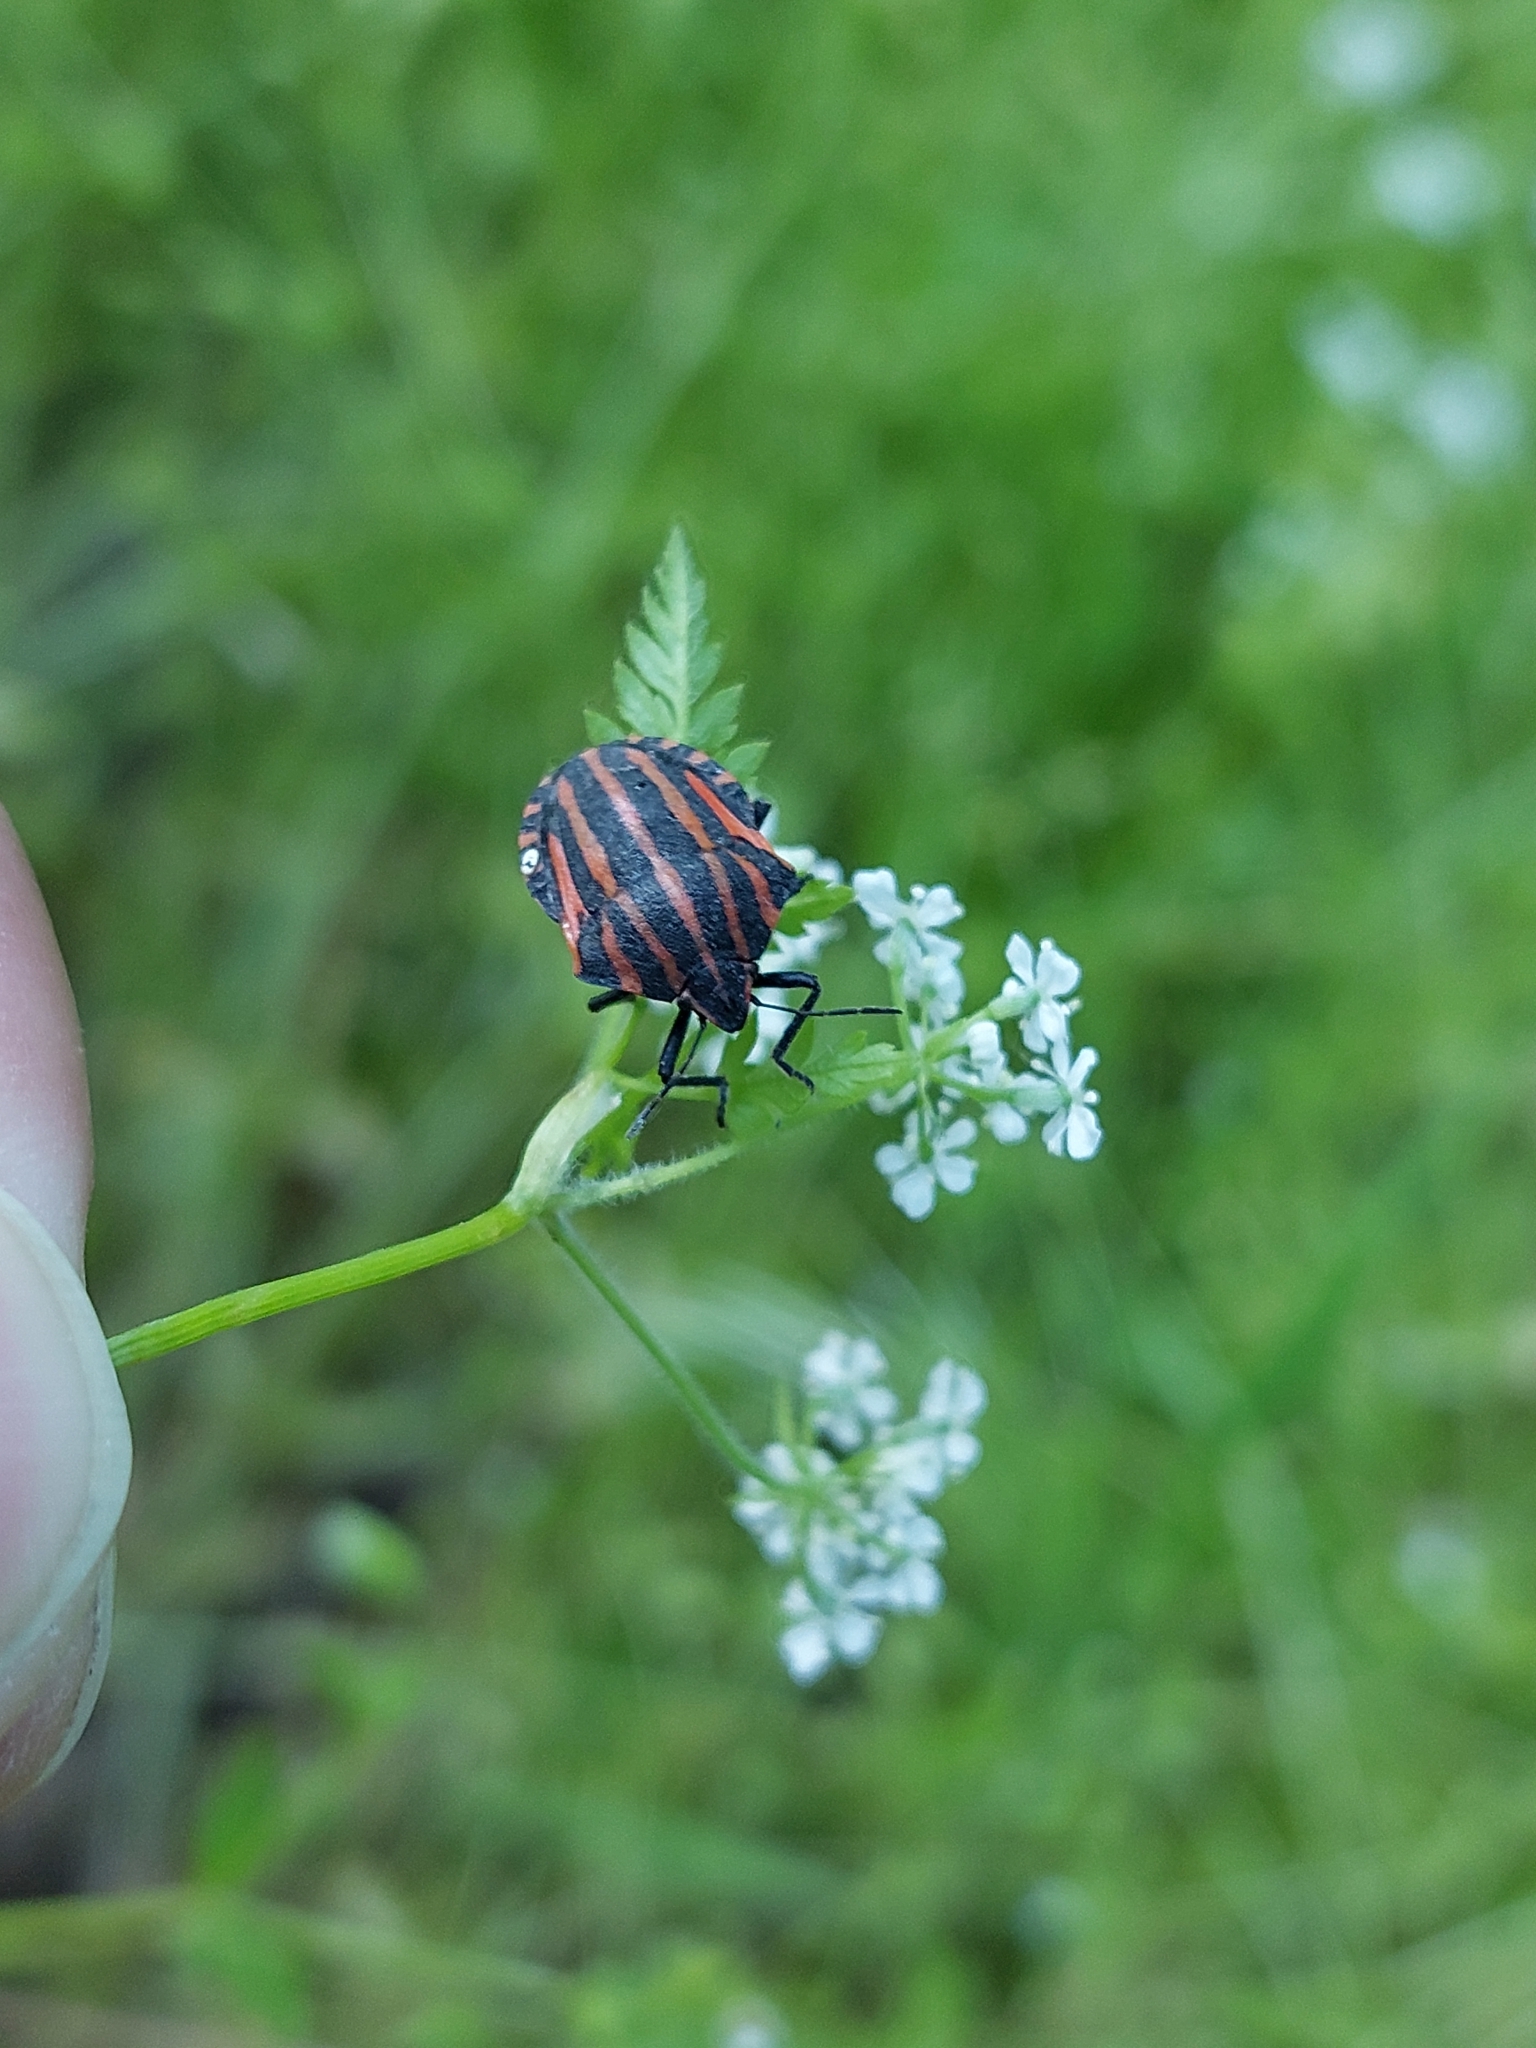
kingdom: Animalia
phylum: Arthropoda
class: Insecta
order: Hemiptera
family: Pentatomidae
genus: Graphosoma
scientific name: Graphosoma italicum
